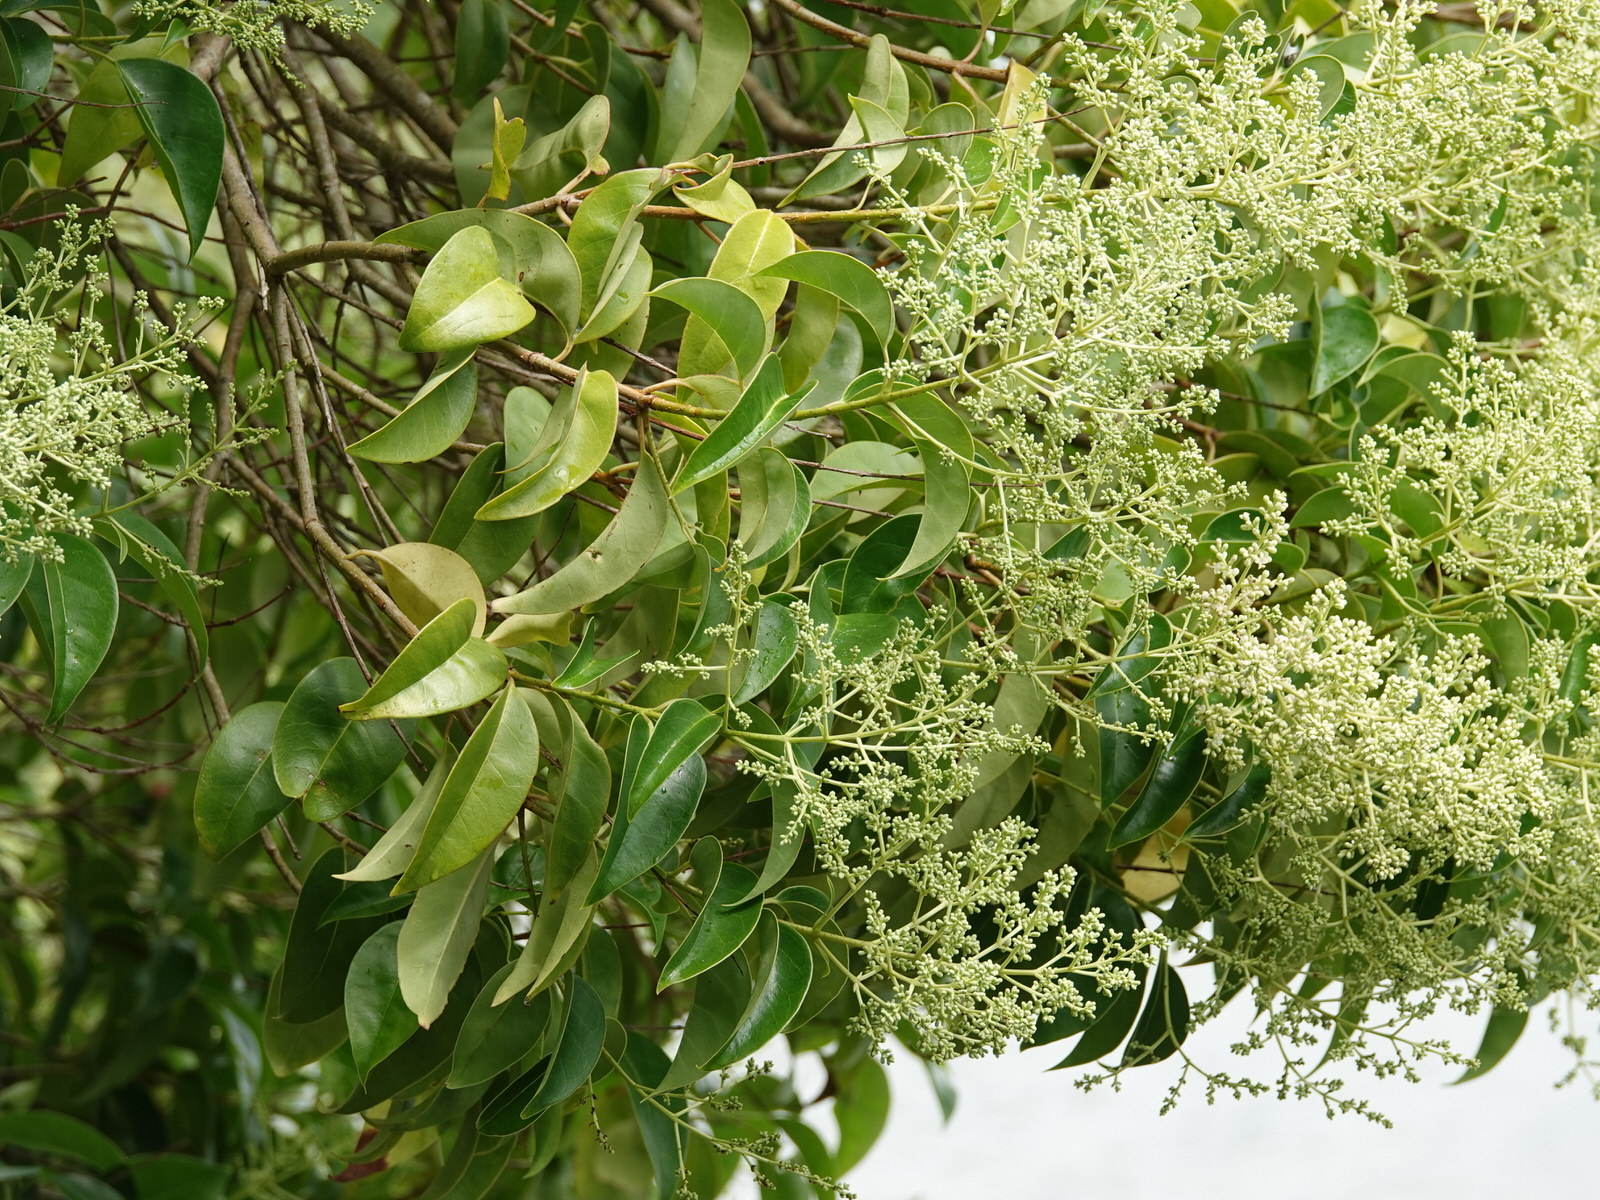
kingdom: Plantae
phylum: Tracheophyta
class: Magnoliopsida
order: Lamiales
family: Oleaceae
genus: Ligustrum
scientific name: Ligustrum lucidum
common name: Glossy privet
